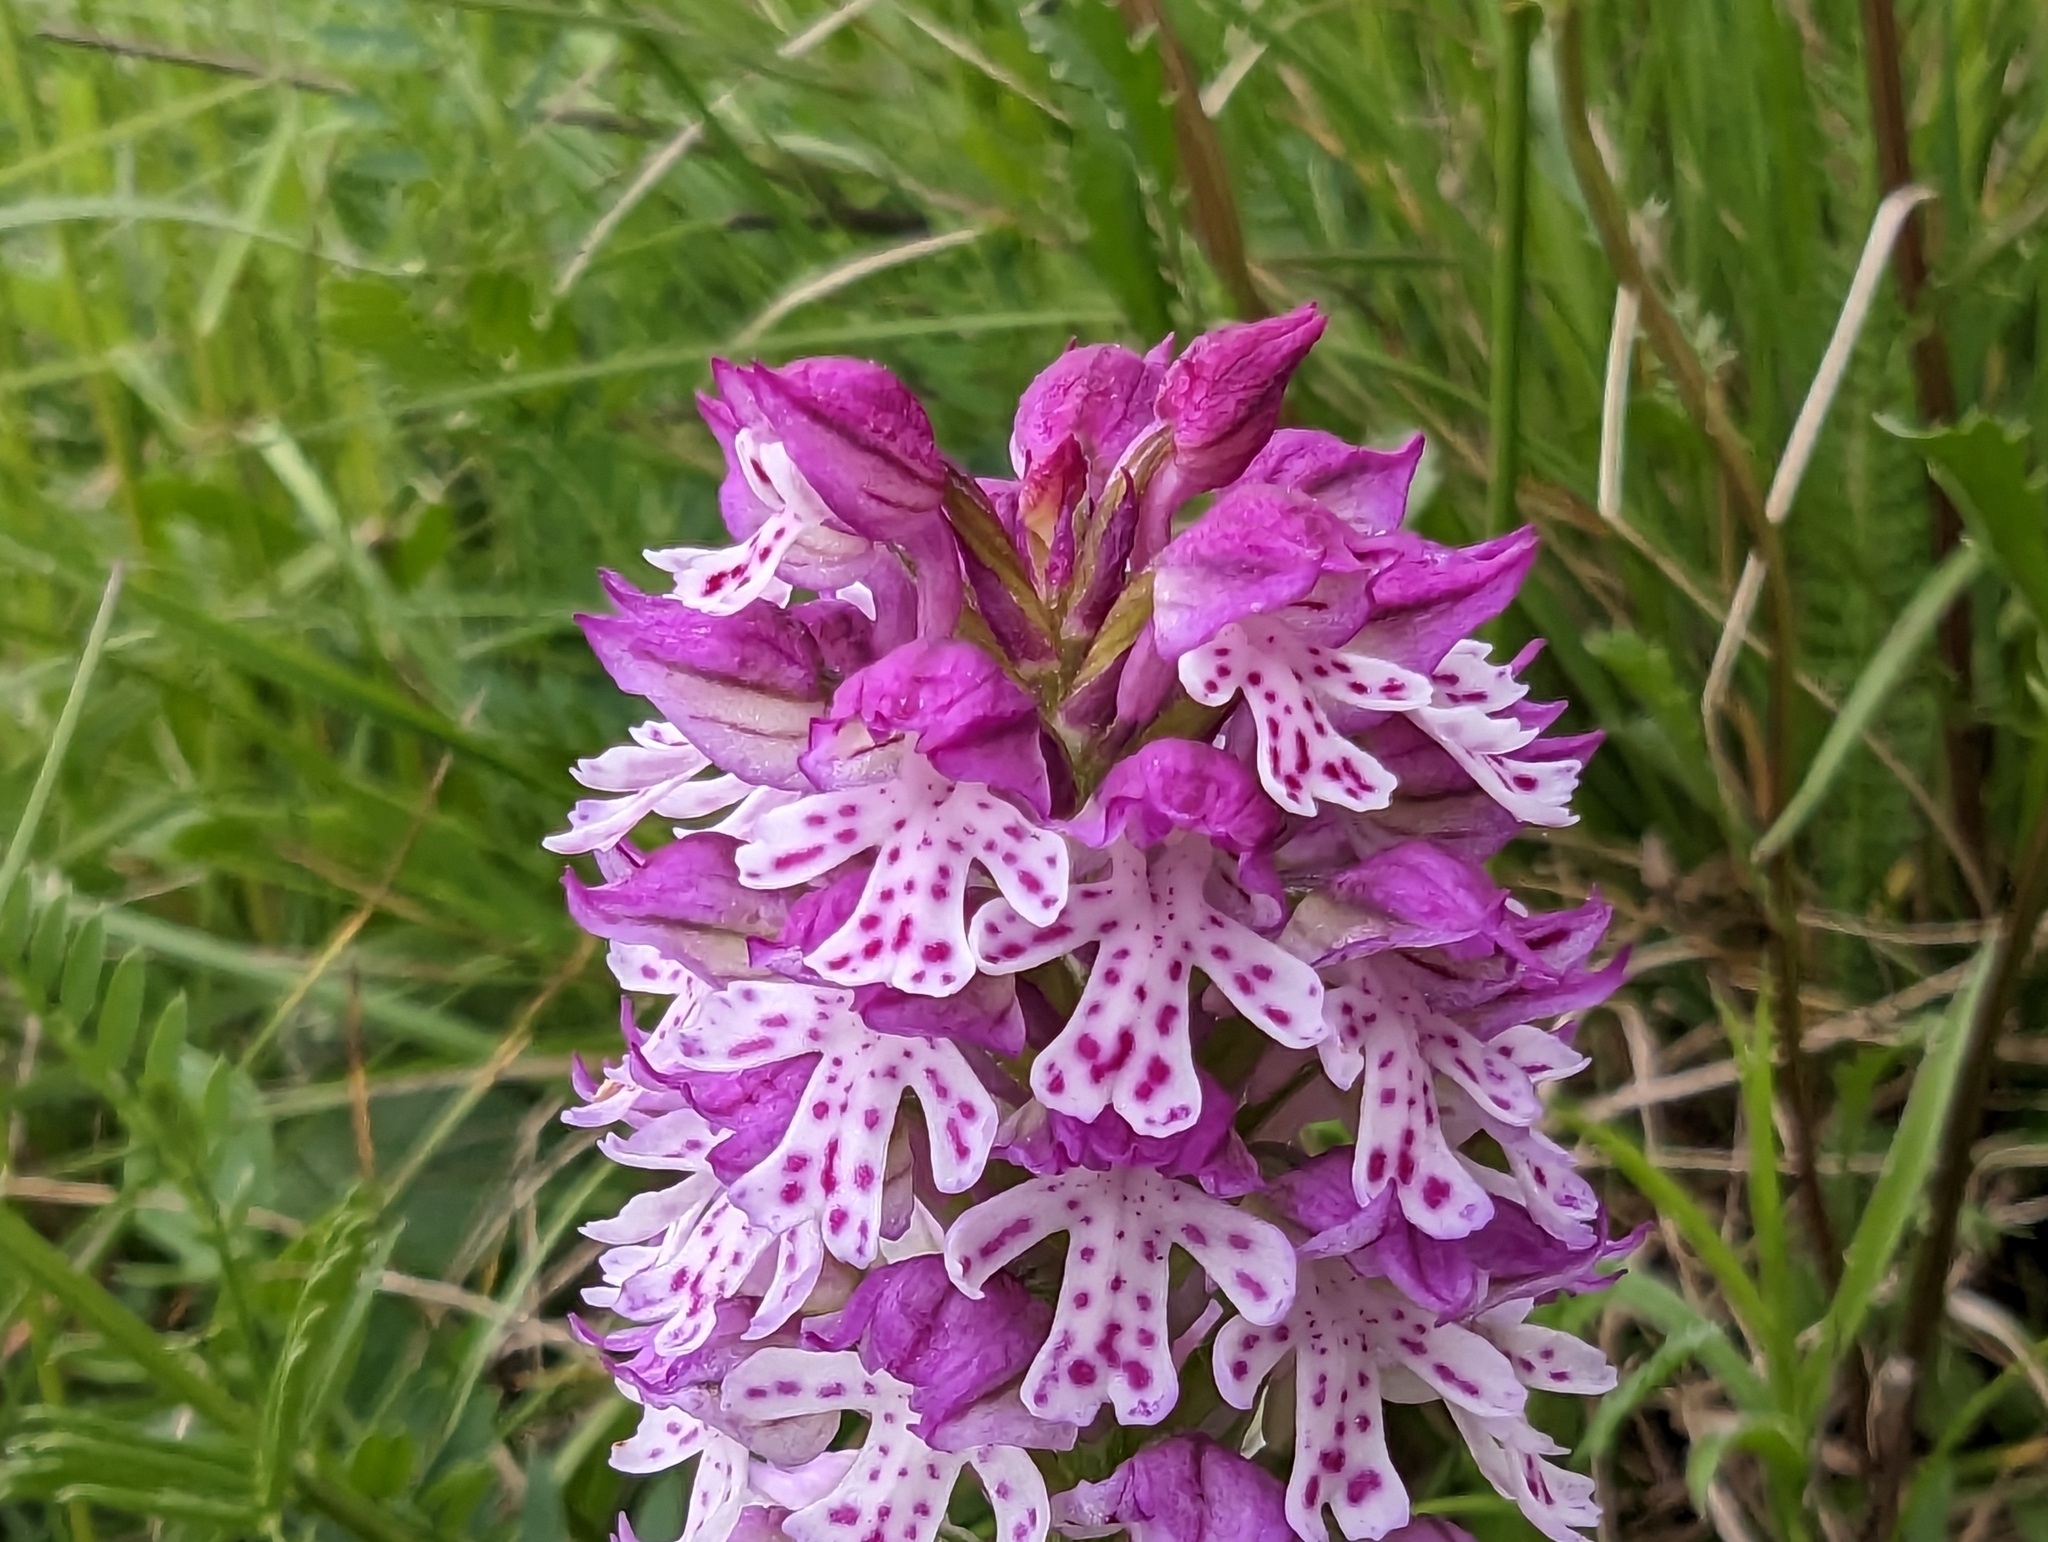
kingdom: Plantae
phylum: Tracheophyta
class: Liliopsida
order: Asparagales
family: Orchidaceae
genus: Neotinea
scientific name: Neotinea dietrichiana
